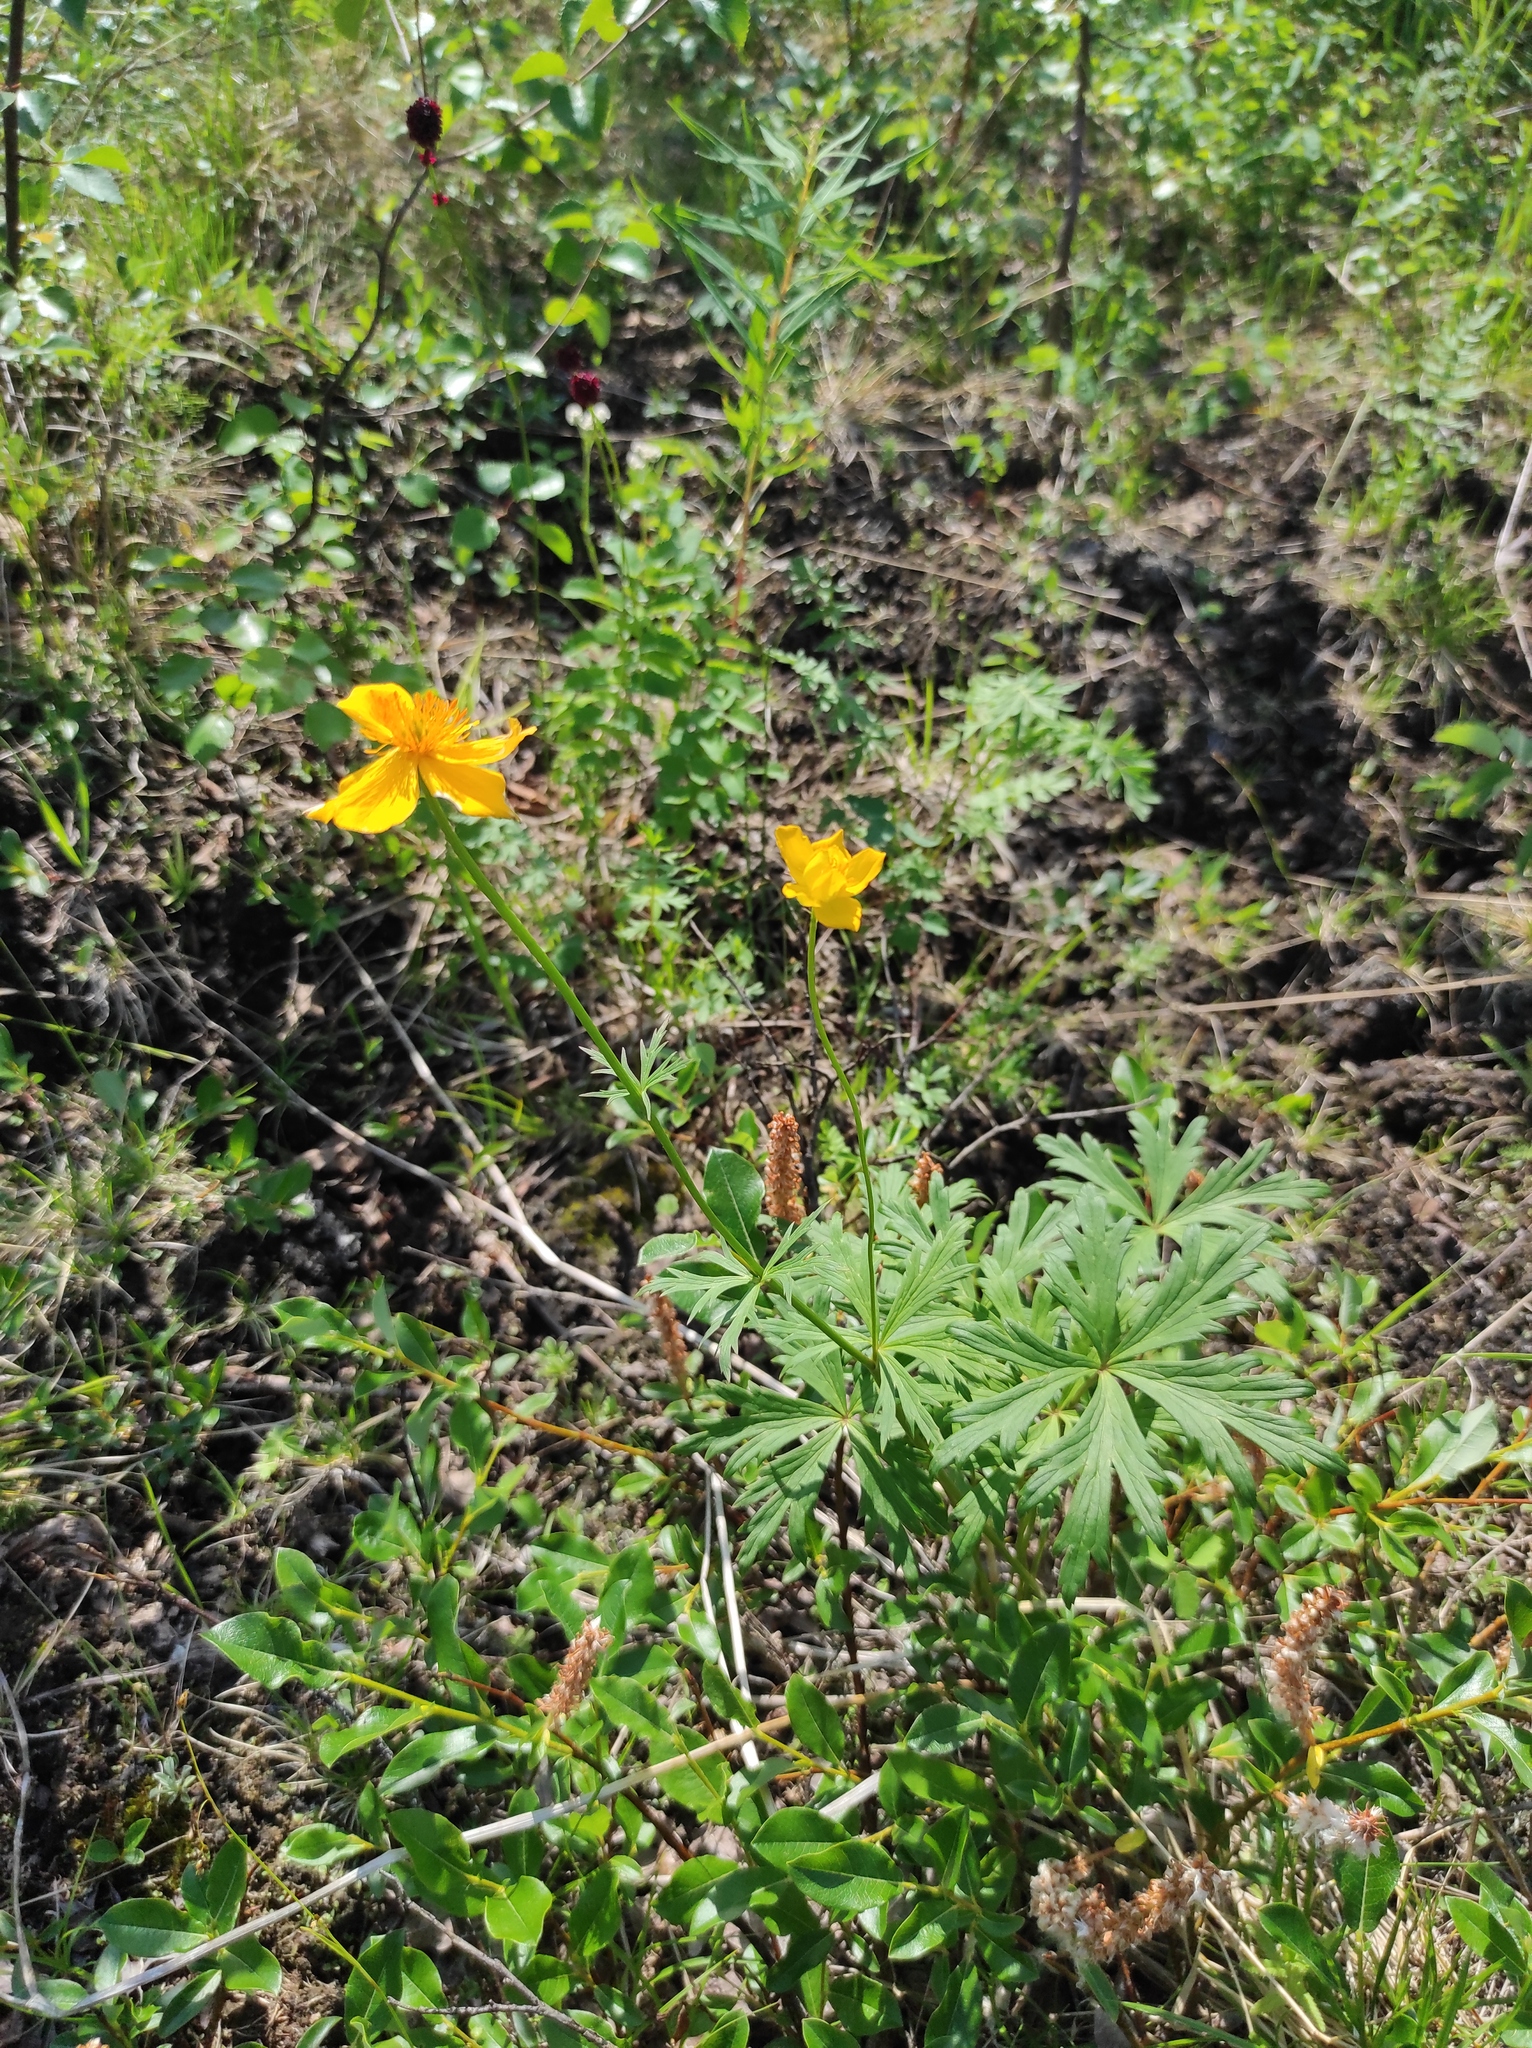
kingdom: Plantae
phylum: Tracheophyta
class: Magnoliopsida
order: Ranunculales
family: Ranunculaceae
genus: Trollius
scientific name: Trollius membranostylis
